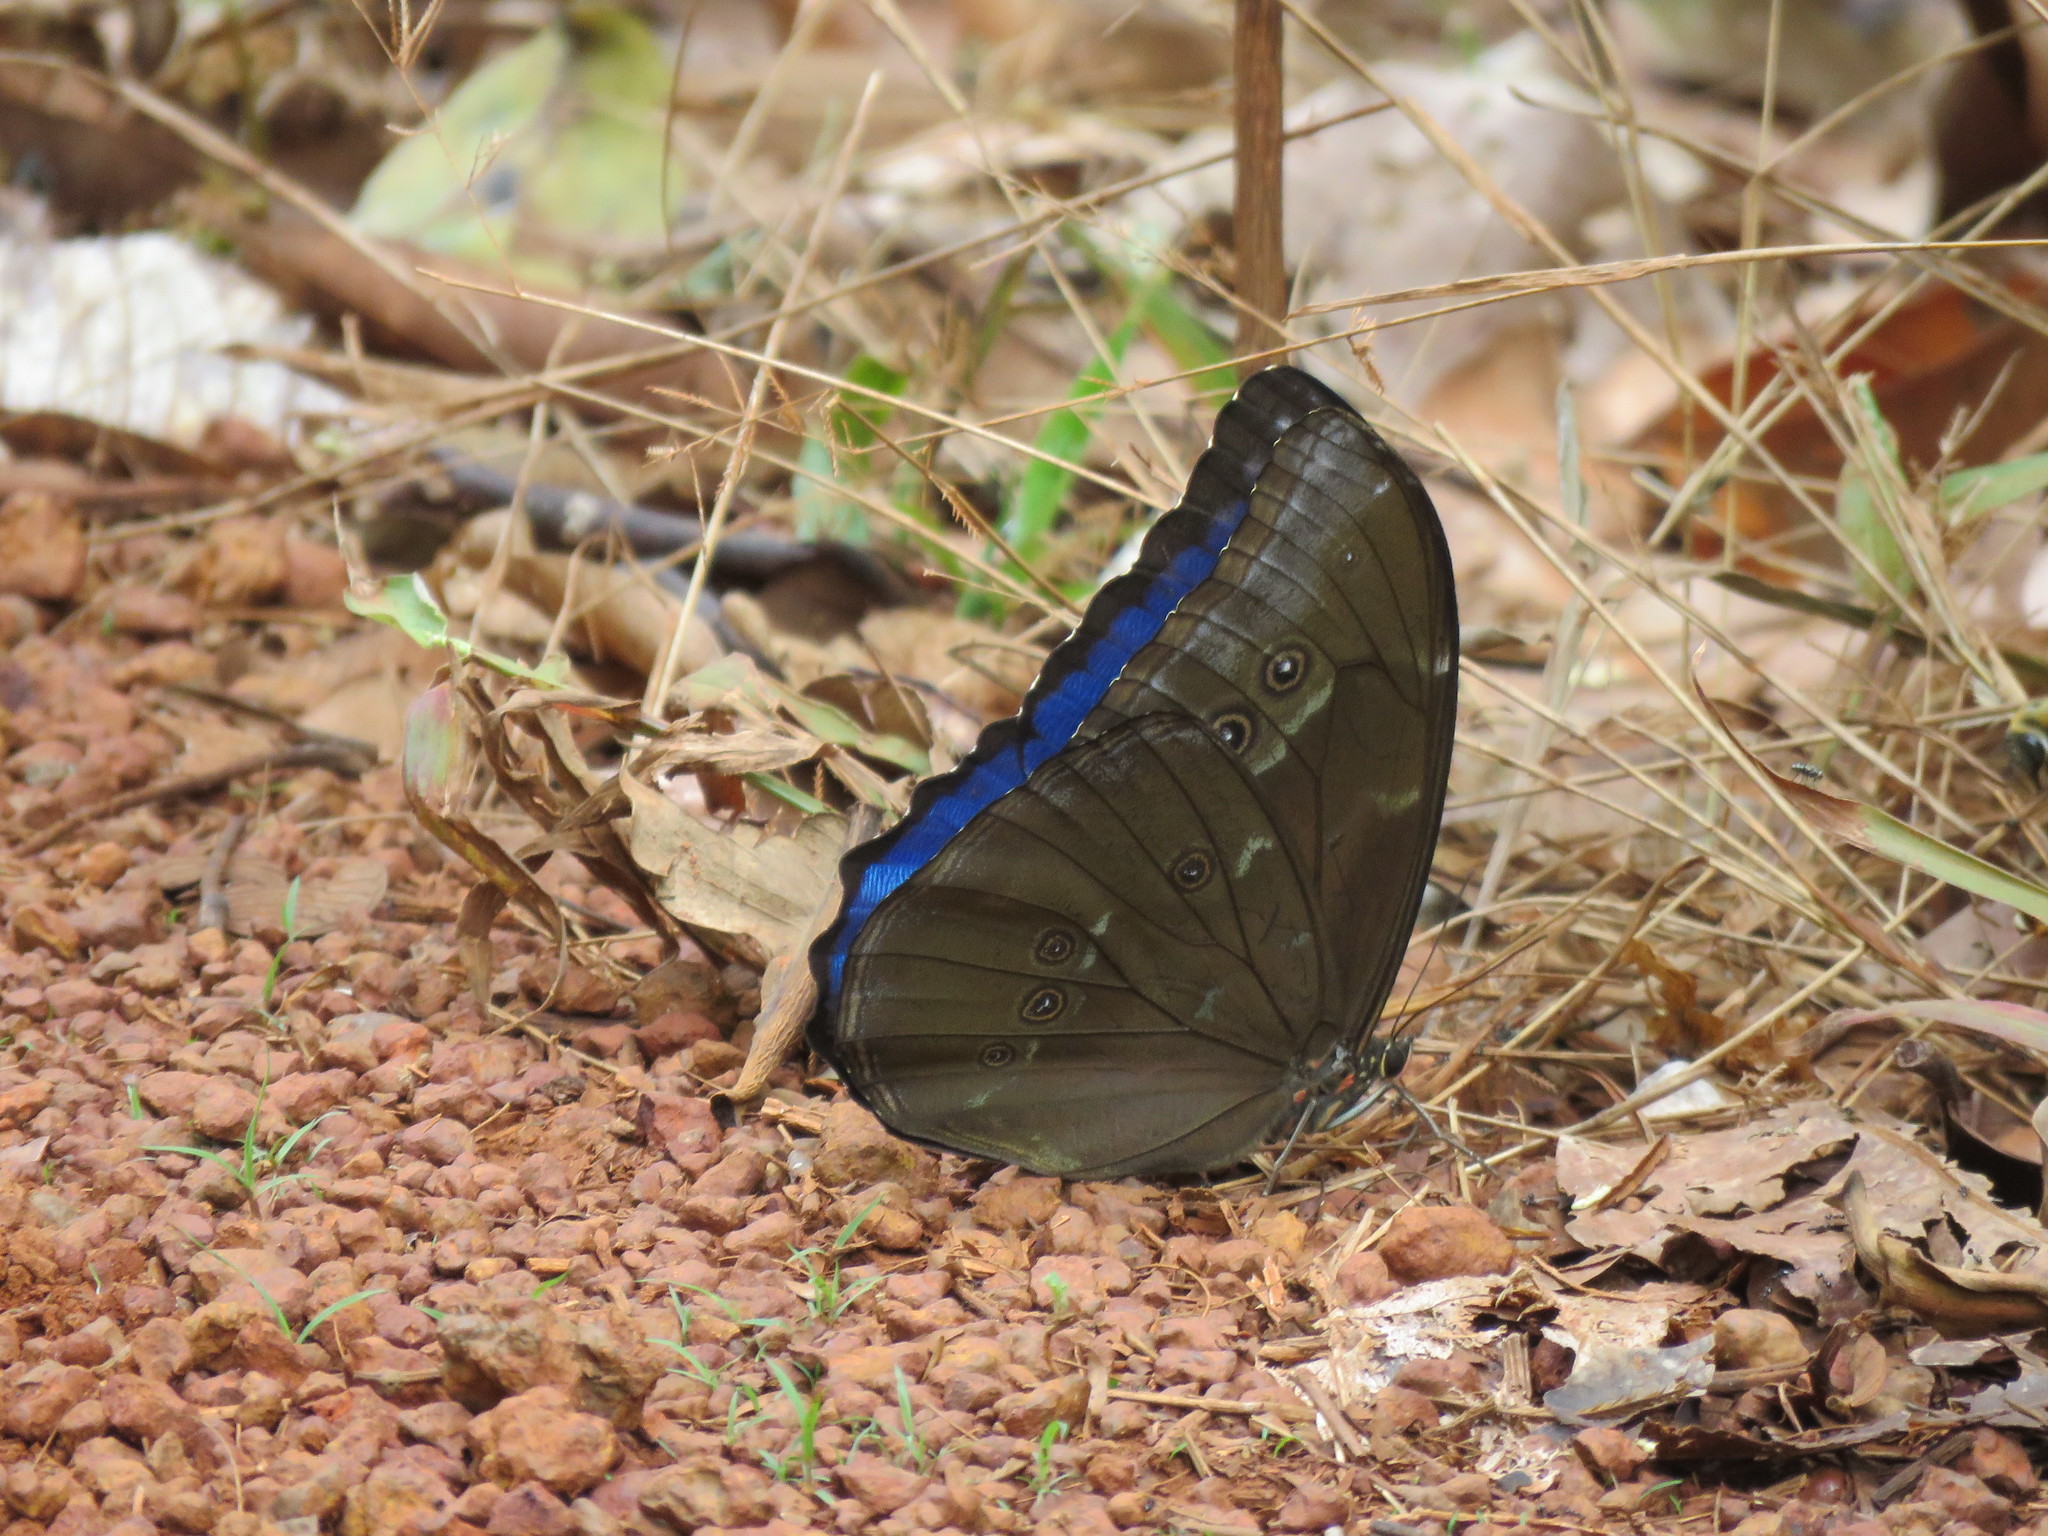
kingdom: Animalia
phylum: Arthropoda
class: Insecta
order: Lepidoptera
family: Nymphalidae
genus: Morpho
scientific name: Morpho menelaus
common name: Menelaus morpho
